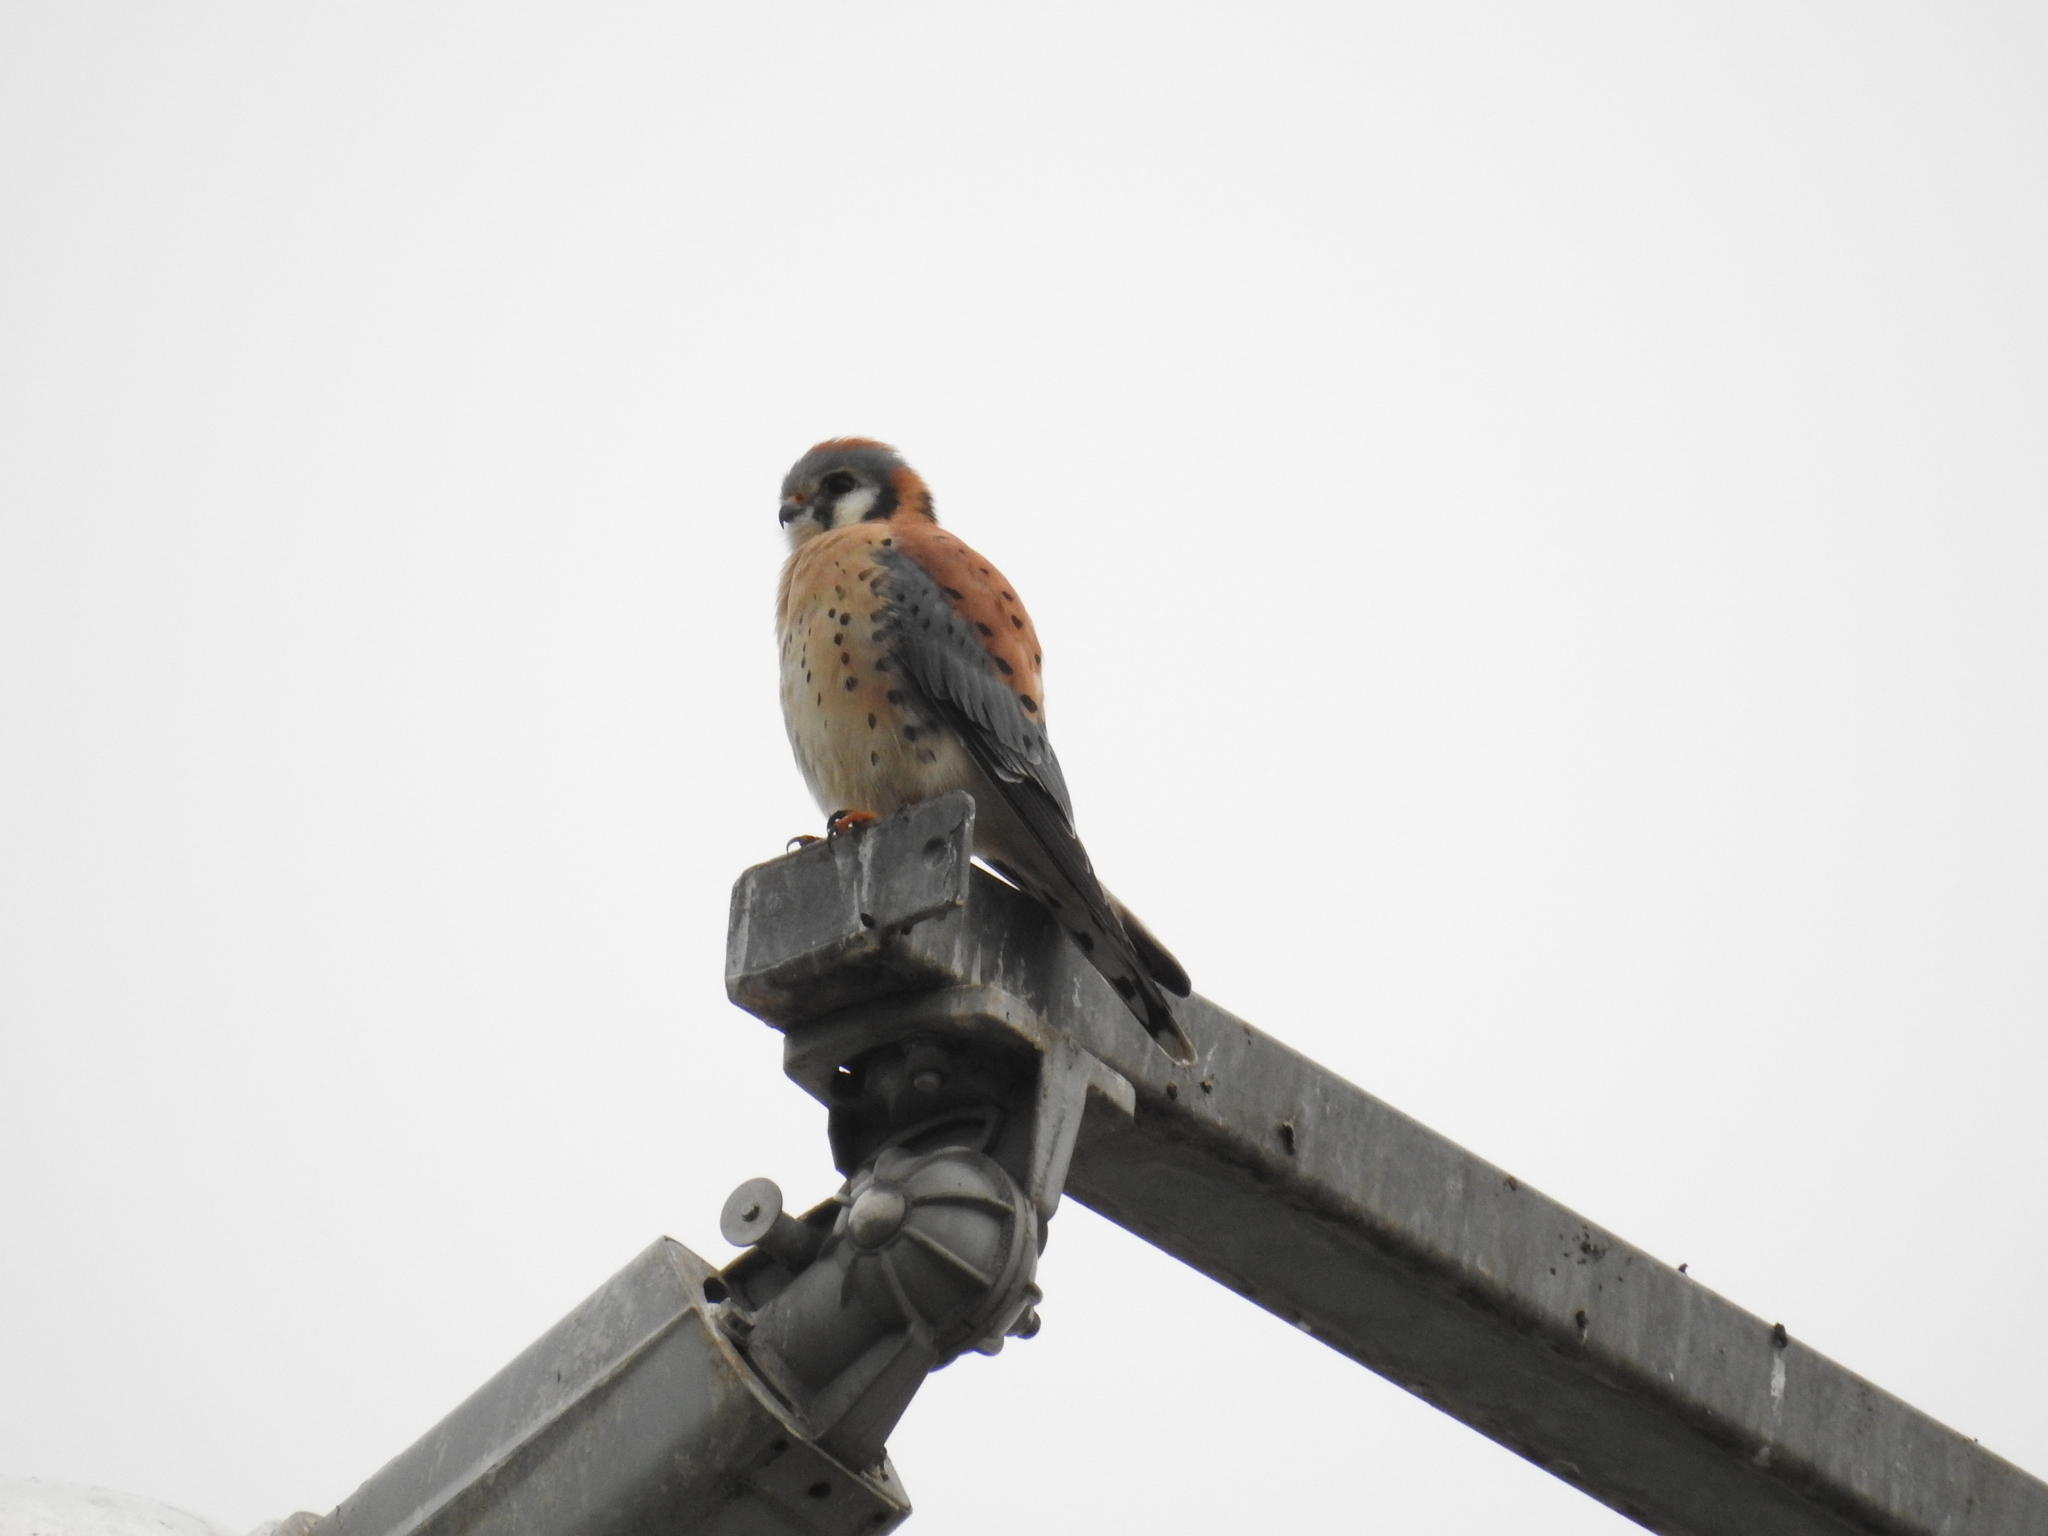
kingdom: Animalia
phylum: Chordata
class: Aves
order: Falconiformes
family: Falconidae
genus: Falco
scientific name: Falco sparverius
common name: American kestrel
